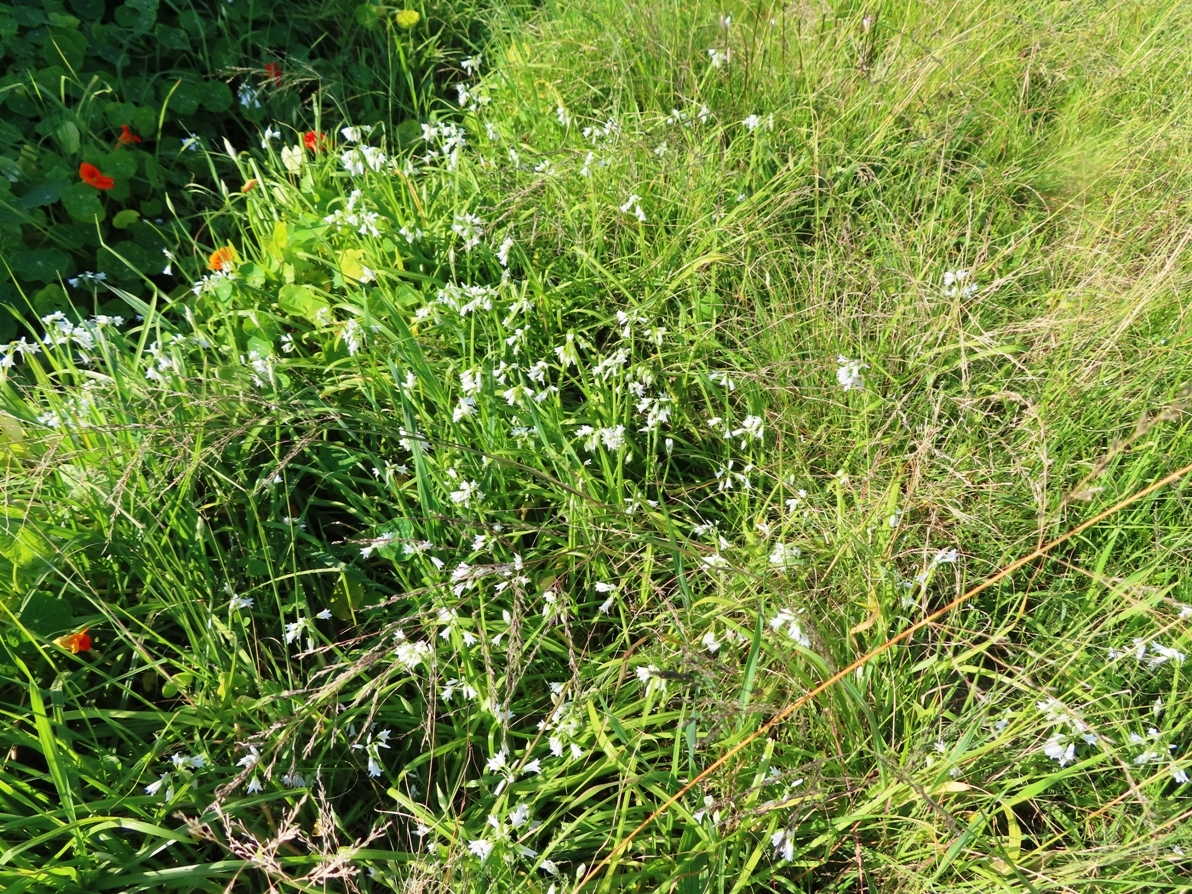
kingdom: Plantae
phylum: Tracheophyta
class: Liliopsida
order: Asparagales
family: Amaryllidaceae
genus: Allium
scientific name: Allium triquetrum
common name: Three-cornered garlic
